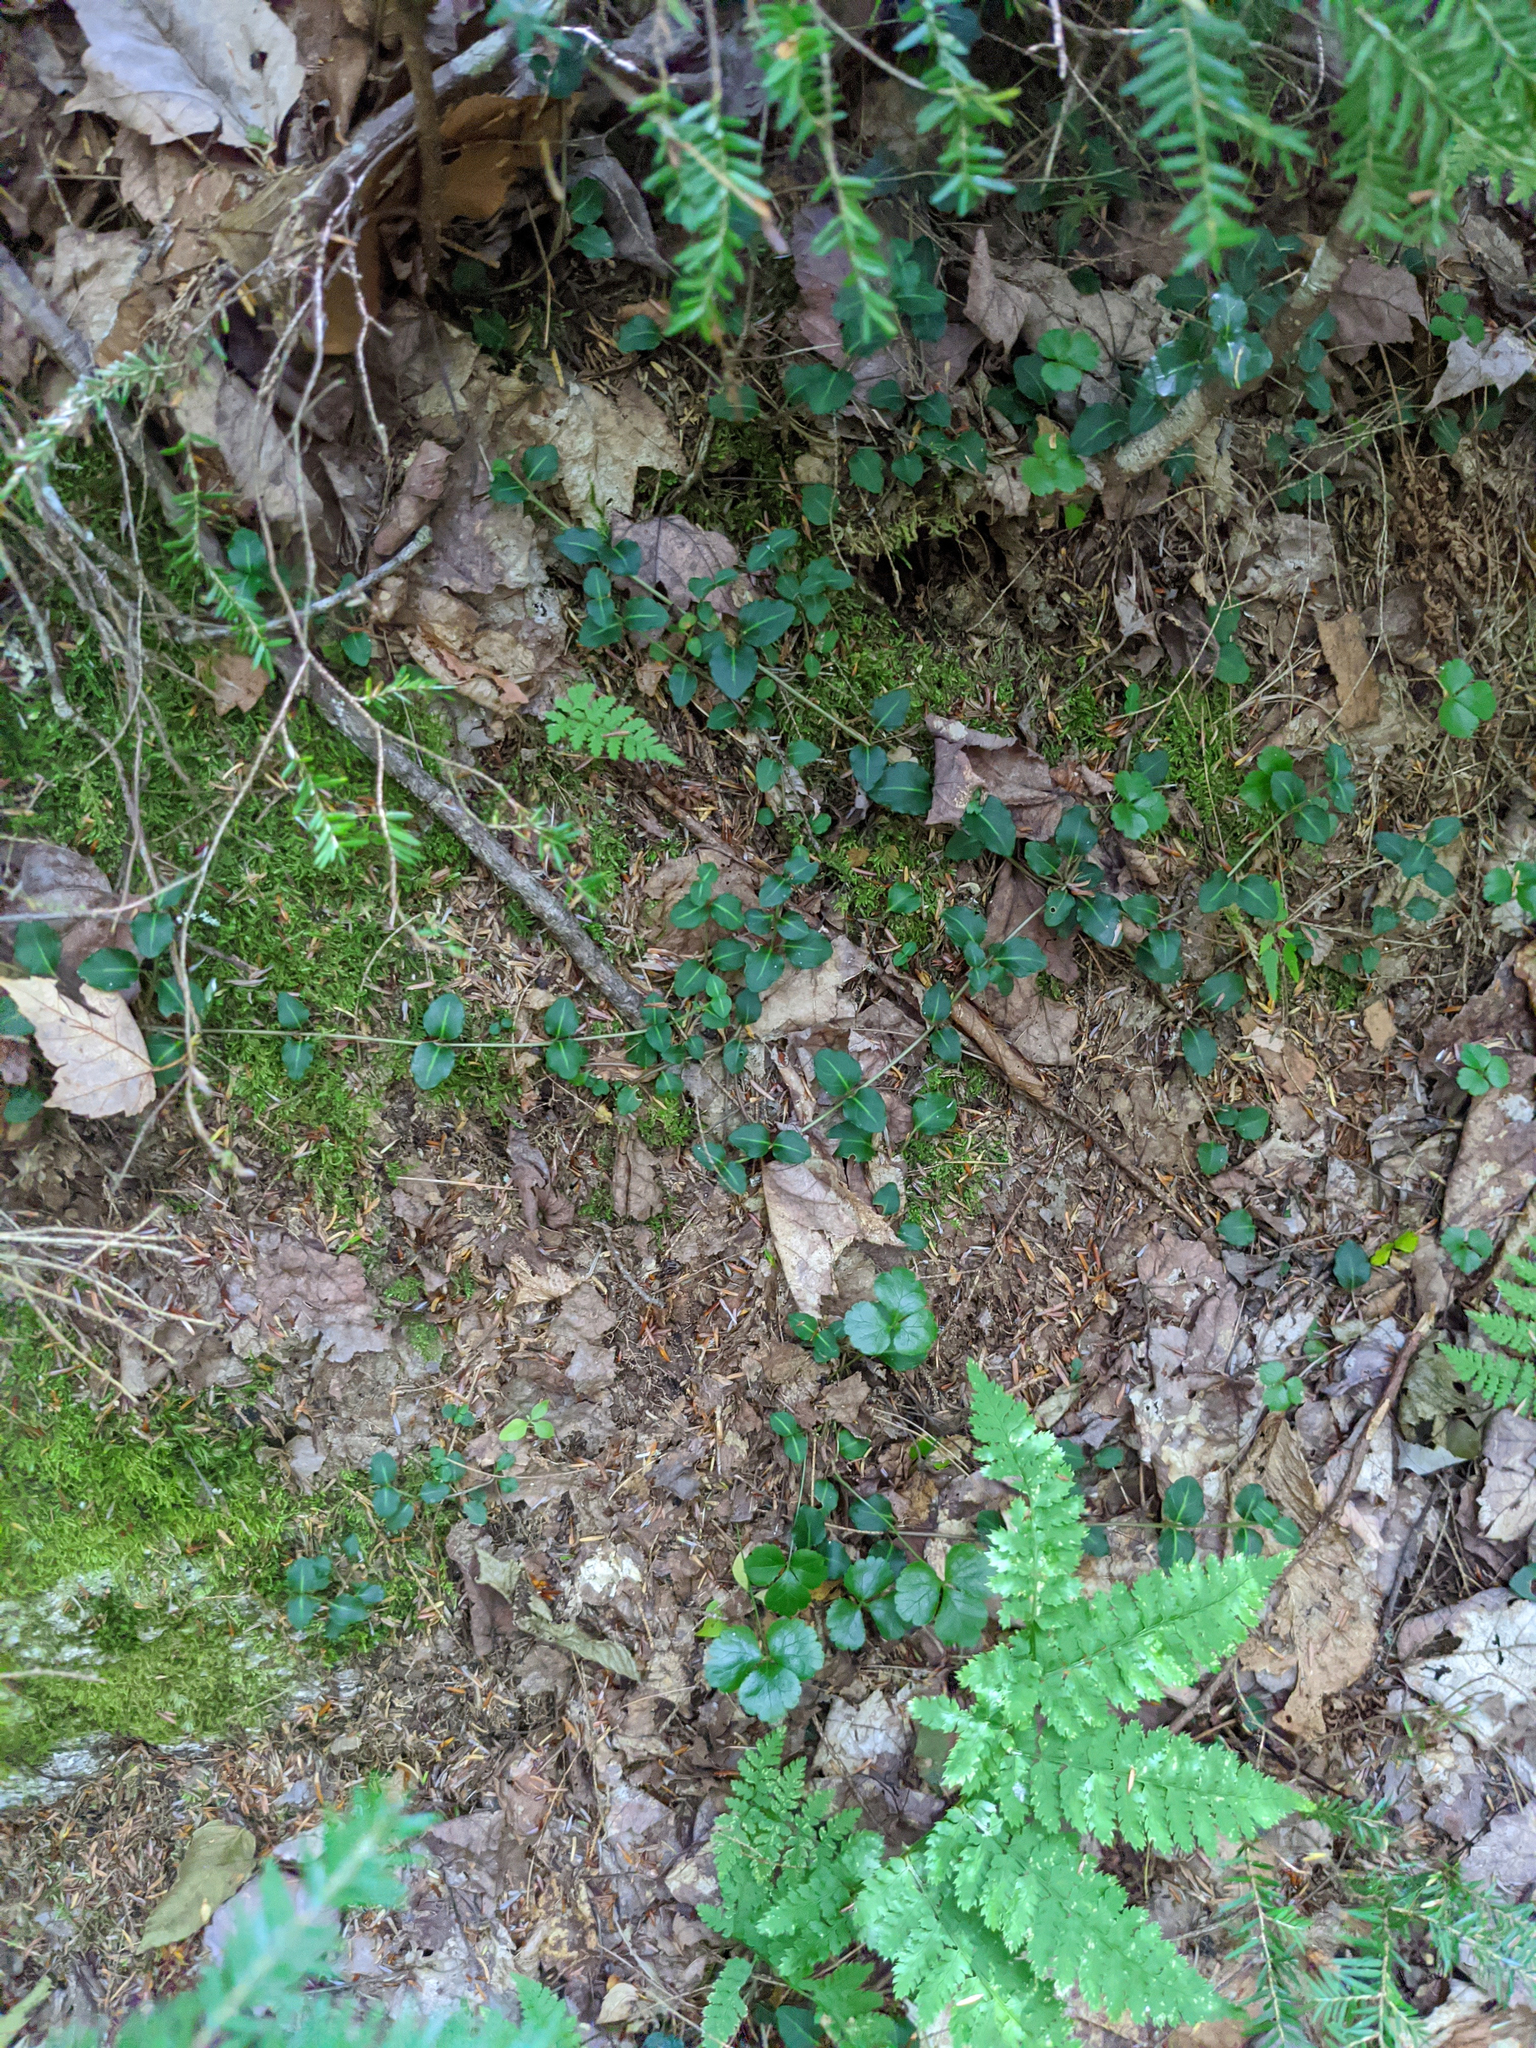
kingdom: Plantae
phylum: Tracheophyta
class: Magnoliopsida
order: Gentianales
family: Rubiaceae
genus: Mitchella
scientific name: Mitchella repens
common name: Partridge-berry
